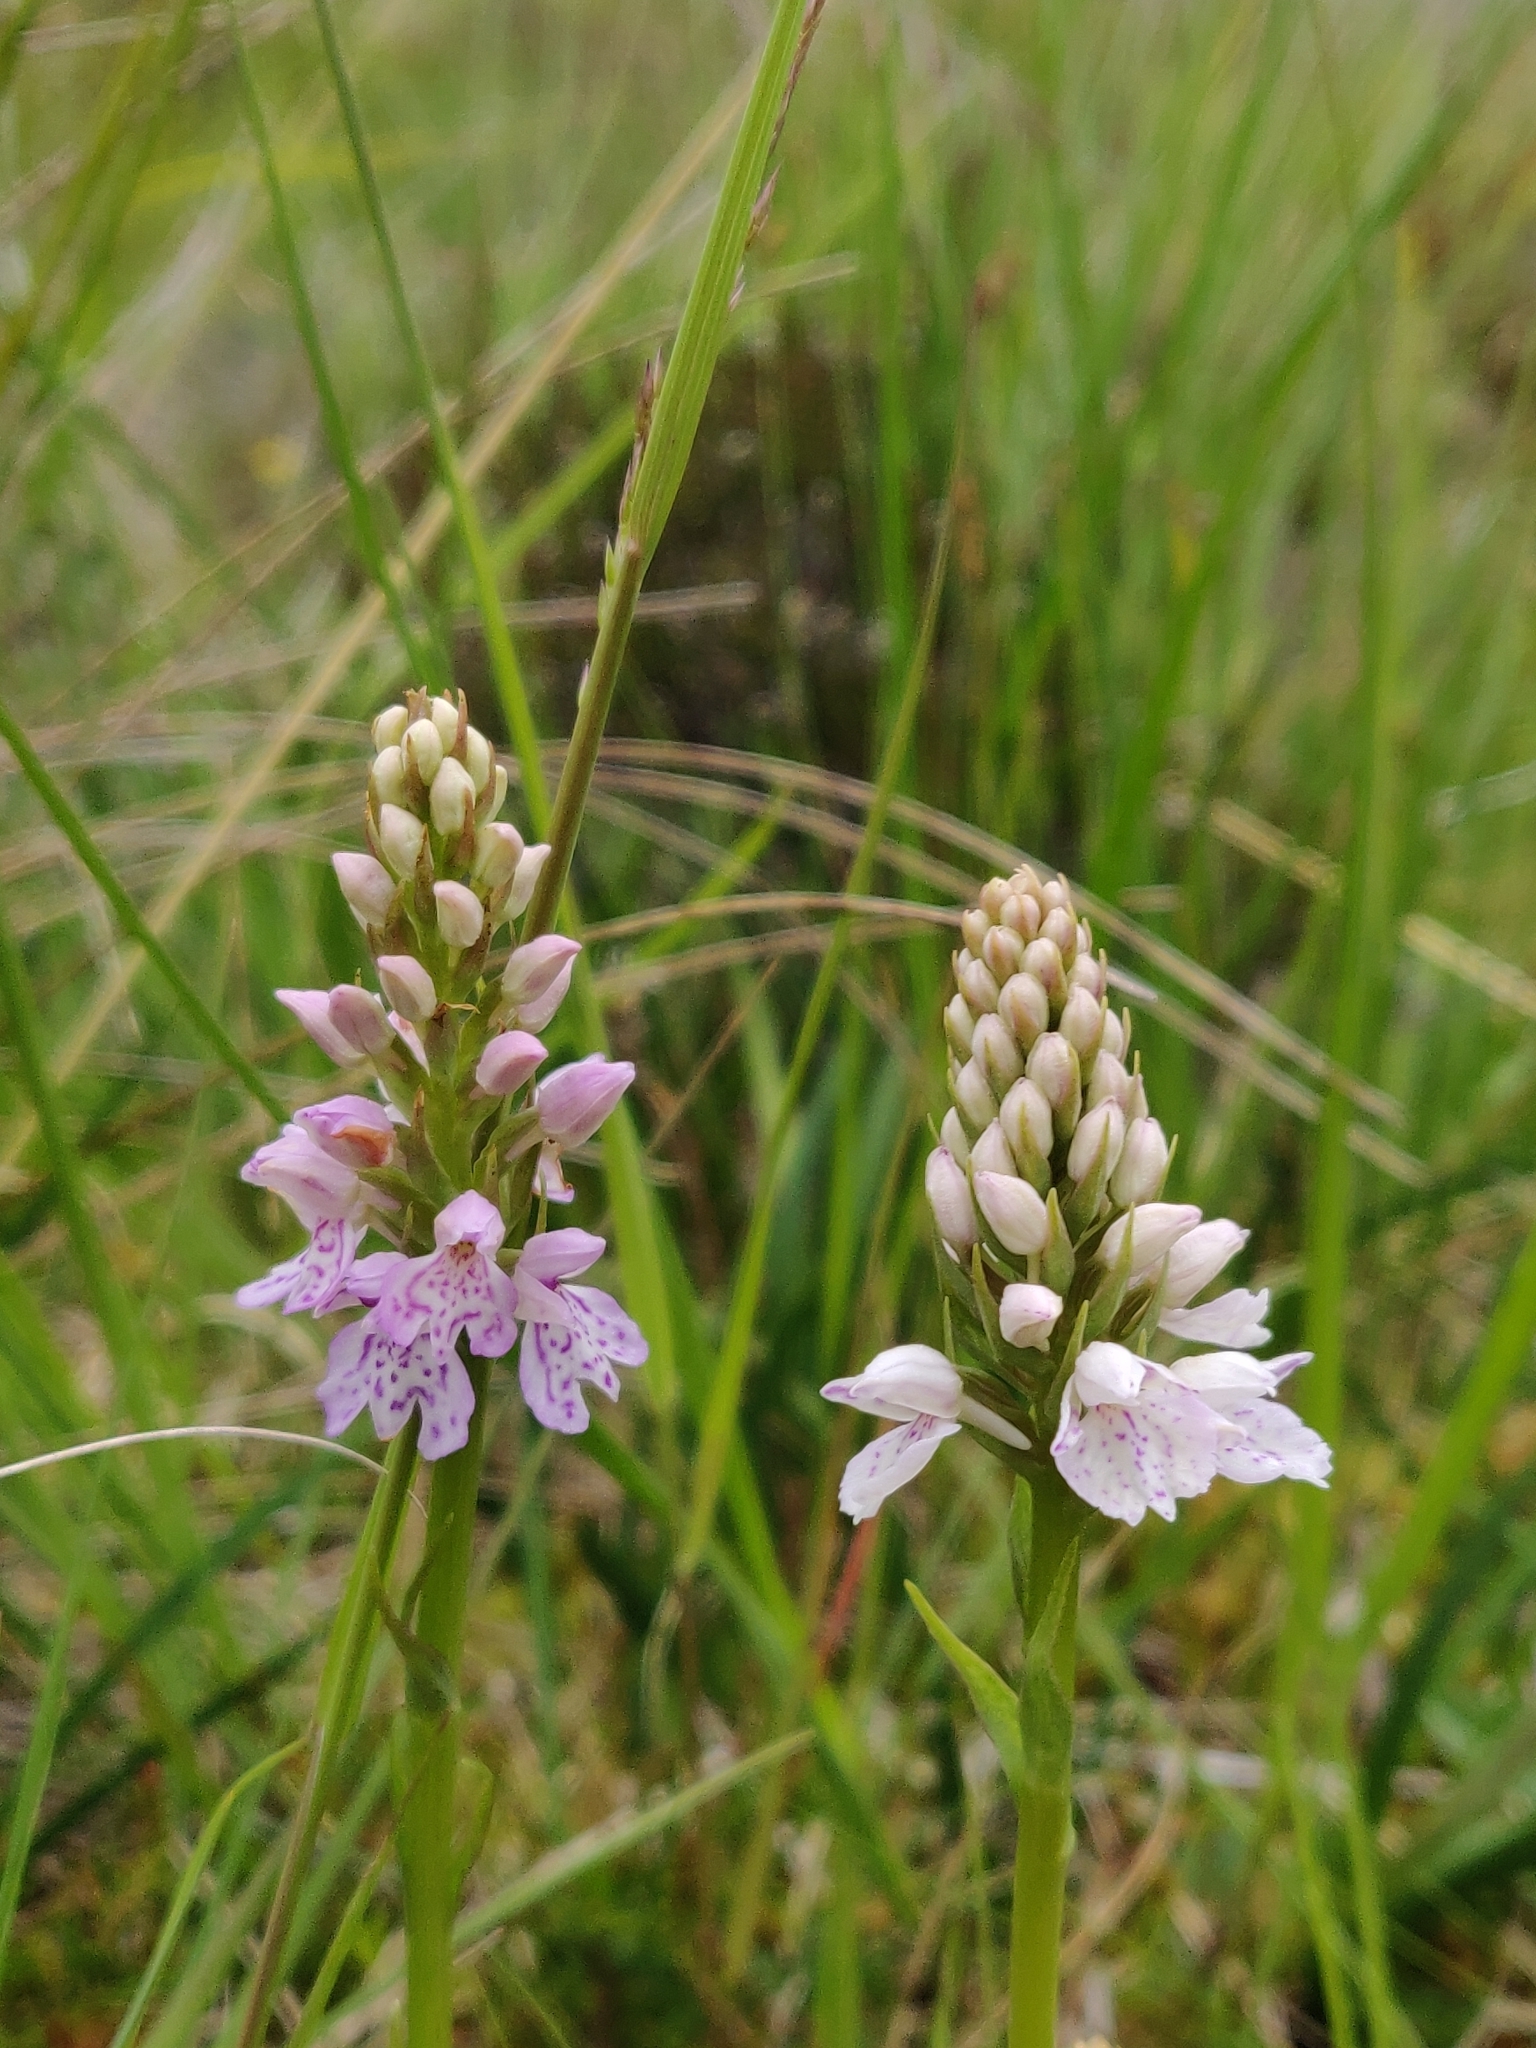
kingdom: Plantae
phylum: Tracheophyta
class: Liliopsida
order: Asparagales
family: Orchidaceae
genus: Dactylorhiza
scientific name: Dactylorhiza maculata
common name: Heath spotted-orchid
